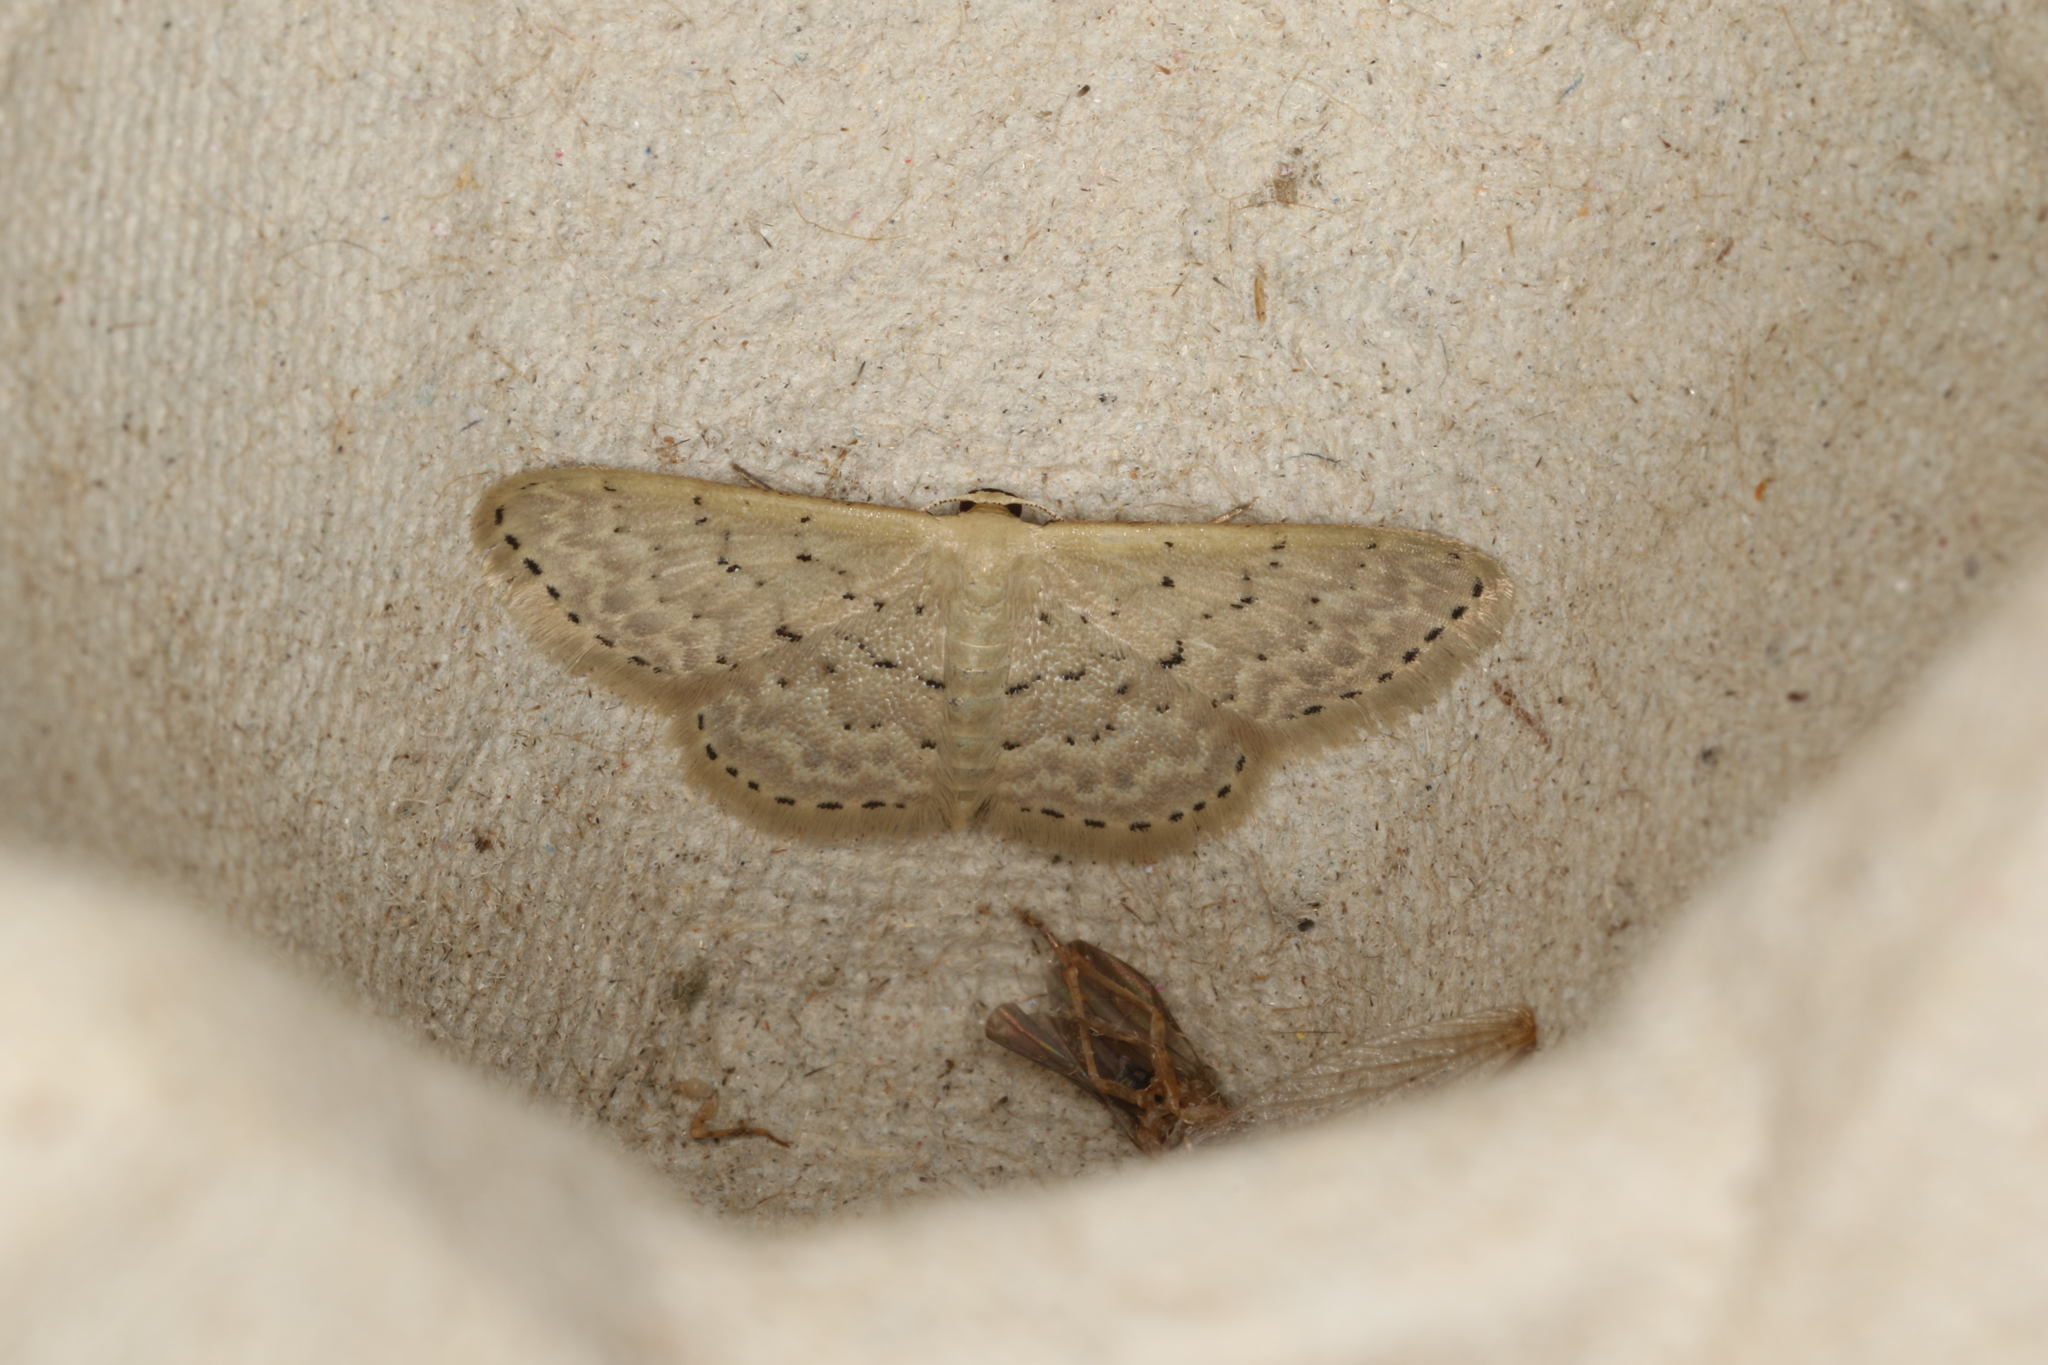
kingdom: Animalia
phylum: Arthropoda
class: Insecta
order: Lepidoptera
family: Geometridae
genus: Idaea
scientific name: Idaea philocosma
